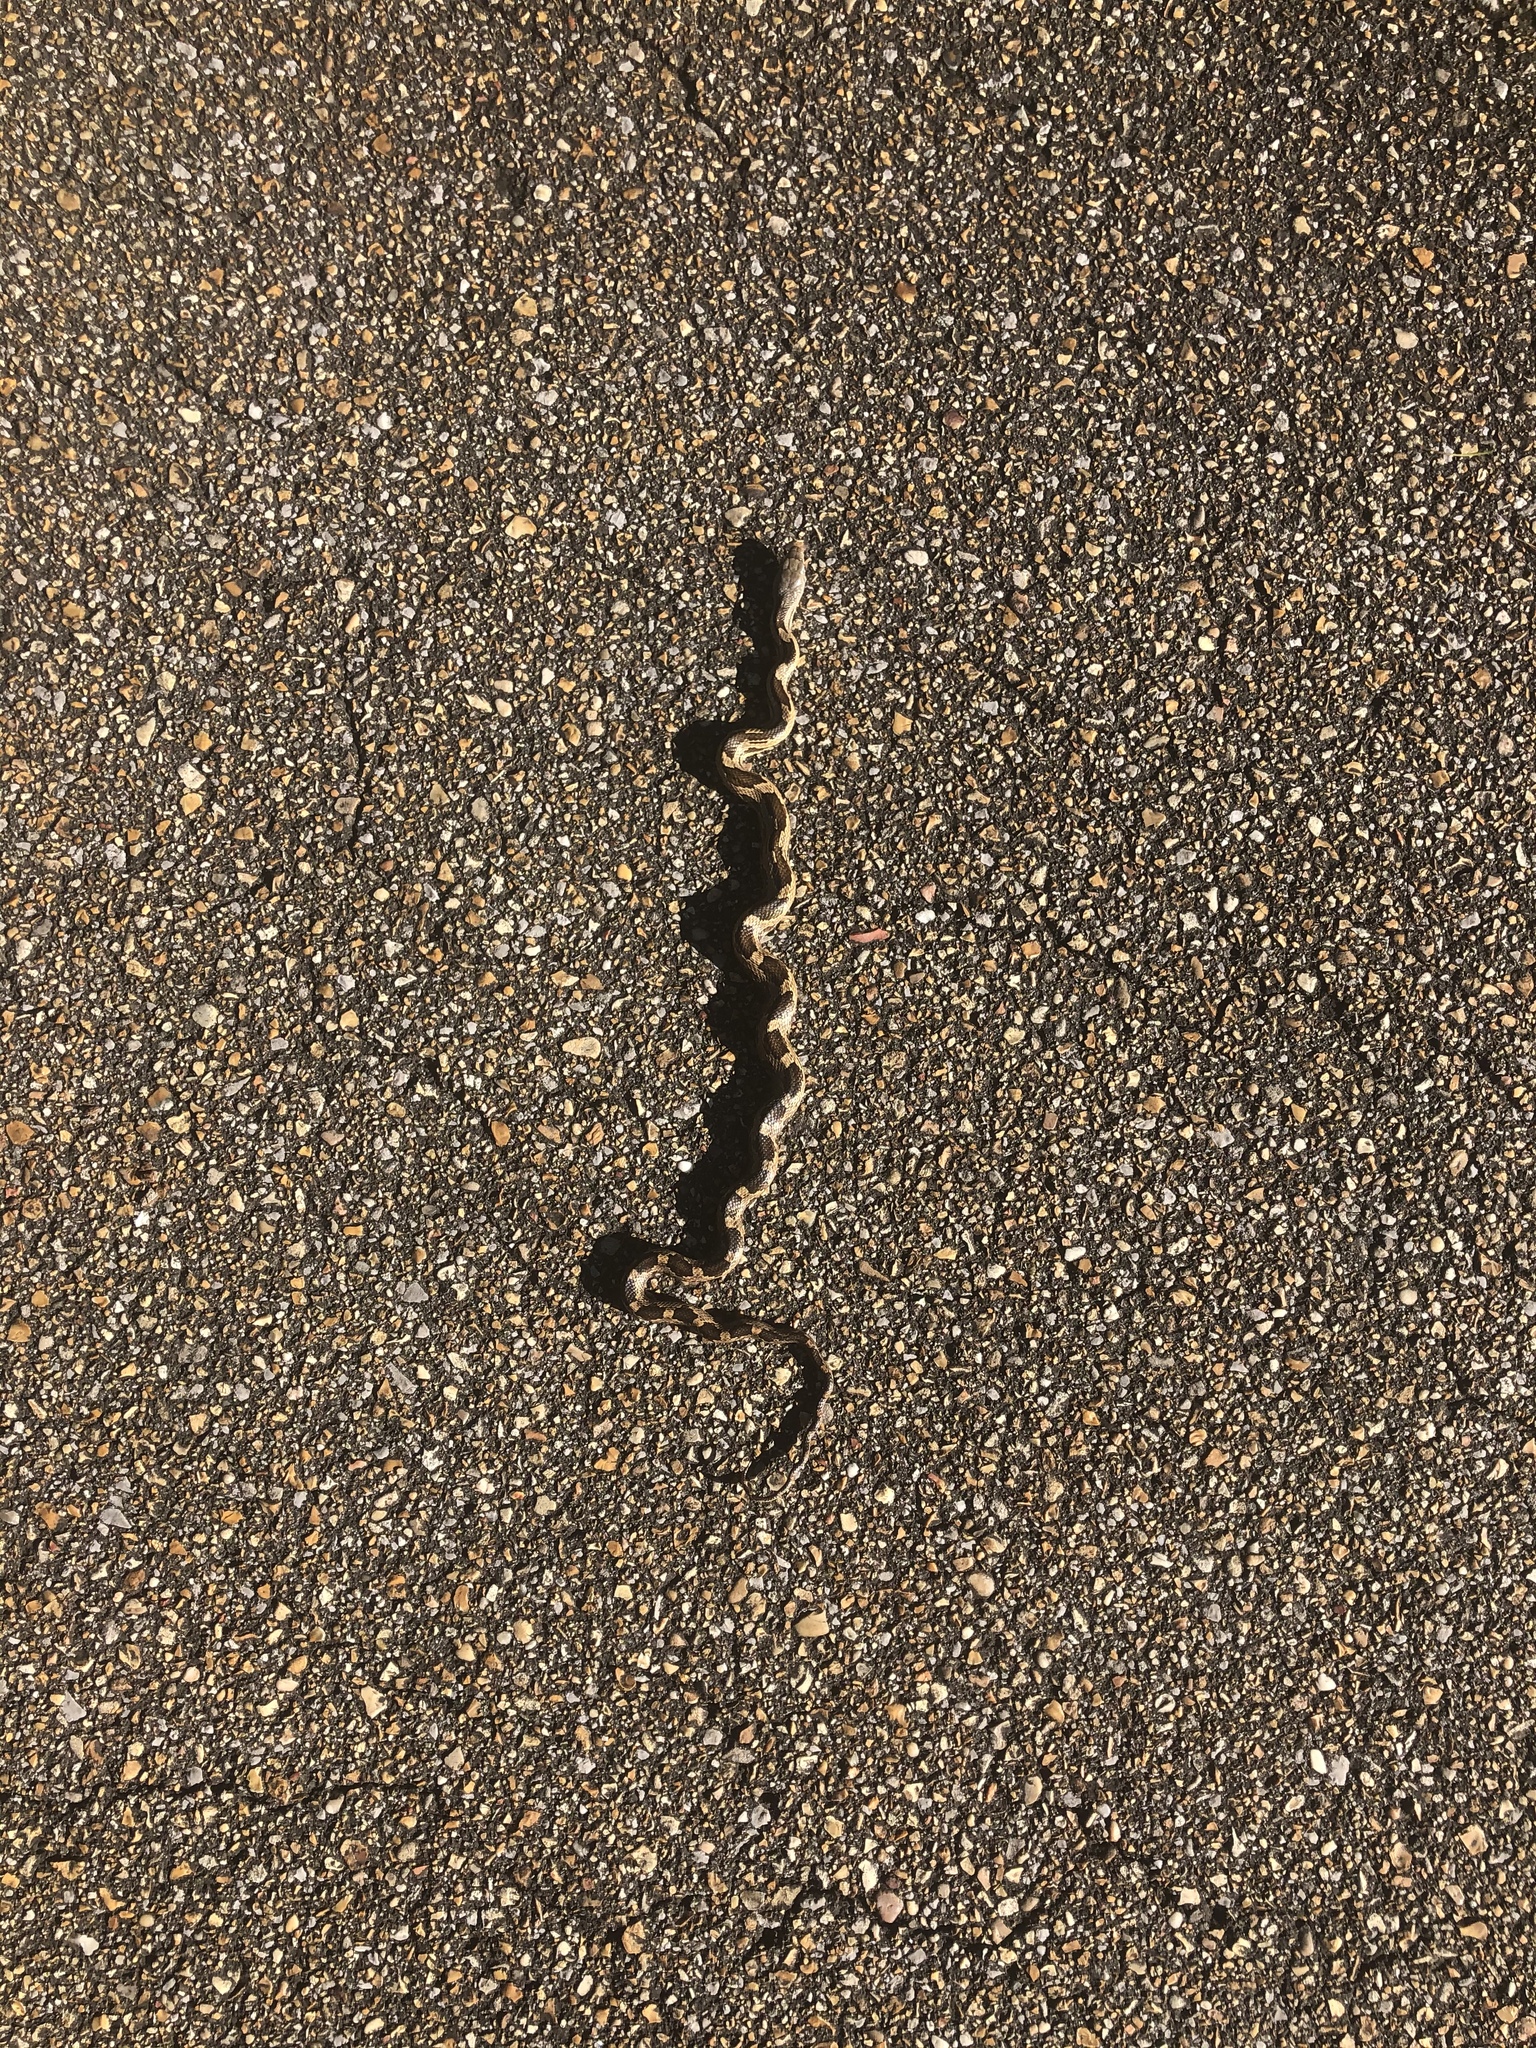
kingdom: Animalia
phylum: Chordata
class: Squamata
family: Colubridae
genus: Pantherophis
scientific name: Pantherophis spiloides
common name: Gray rat snake
